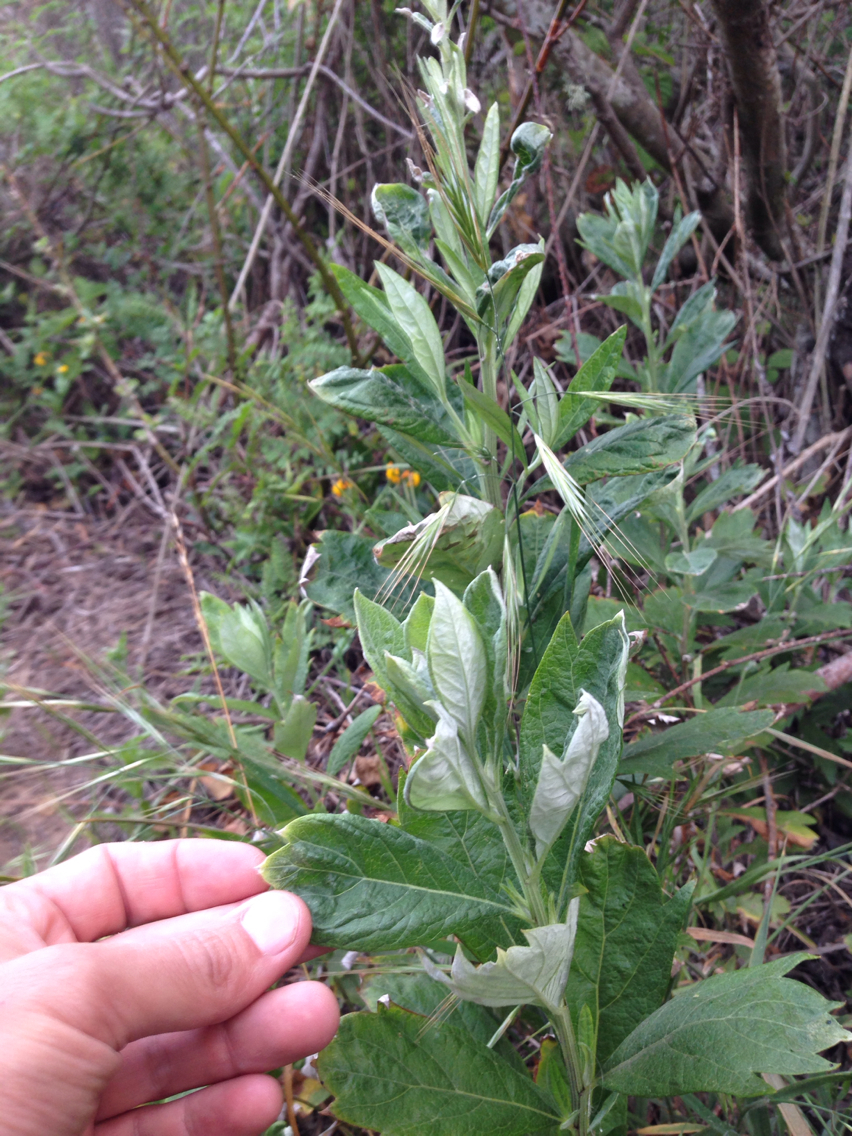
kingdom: Plantae
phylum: Tracheophyta
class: Magnoliopsida
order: Asterales
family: Asteraceae
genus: Artemisia
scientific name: Artemisia douglasiana
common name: Northwest mugwort
